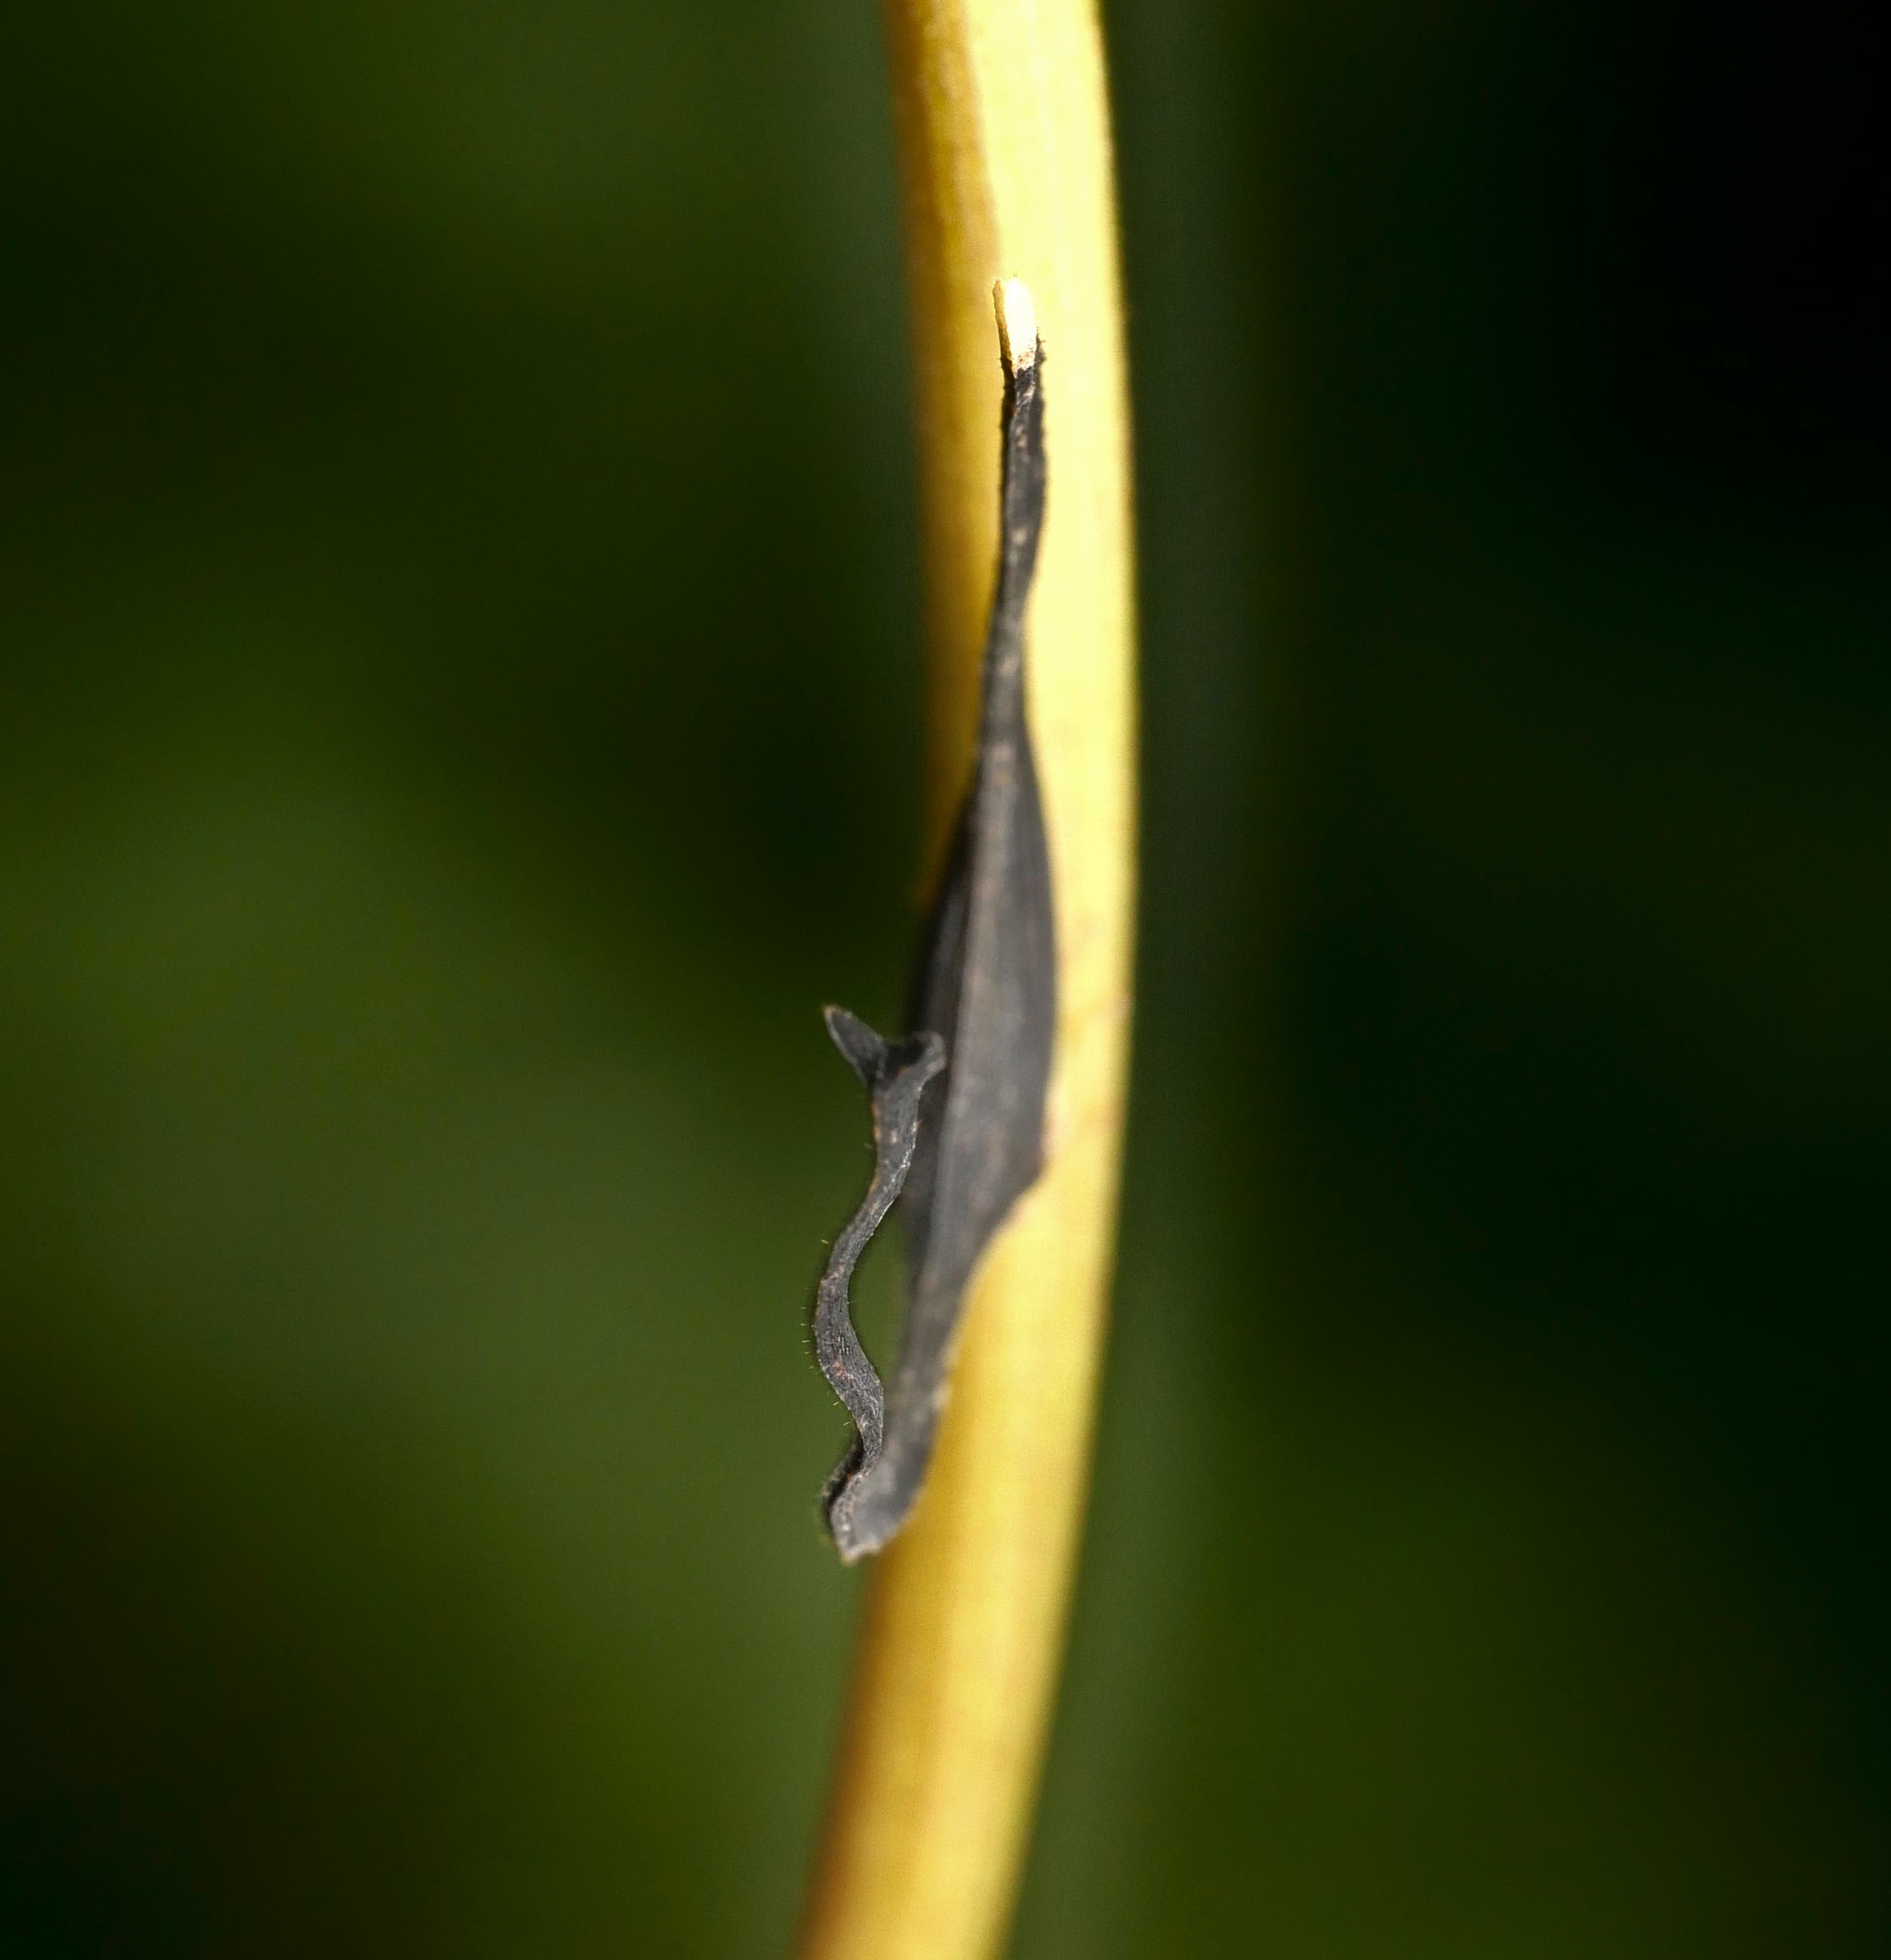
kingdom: Animalia
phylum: Arthropoda
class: Insecta
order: Hemiptera
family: Membracidae
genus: Cladonota
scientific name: Cladonota apicalis
